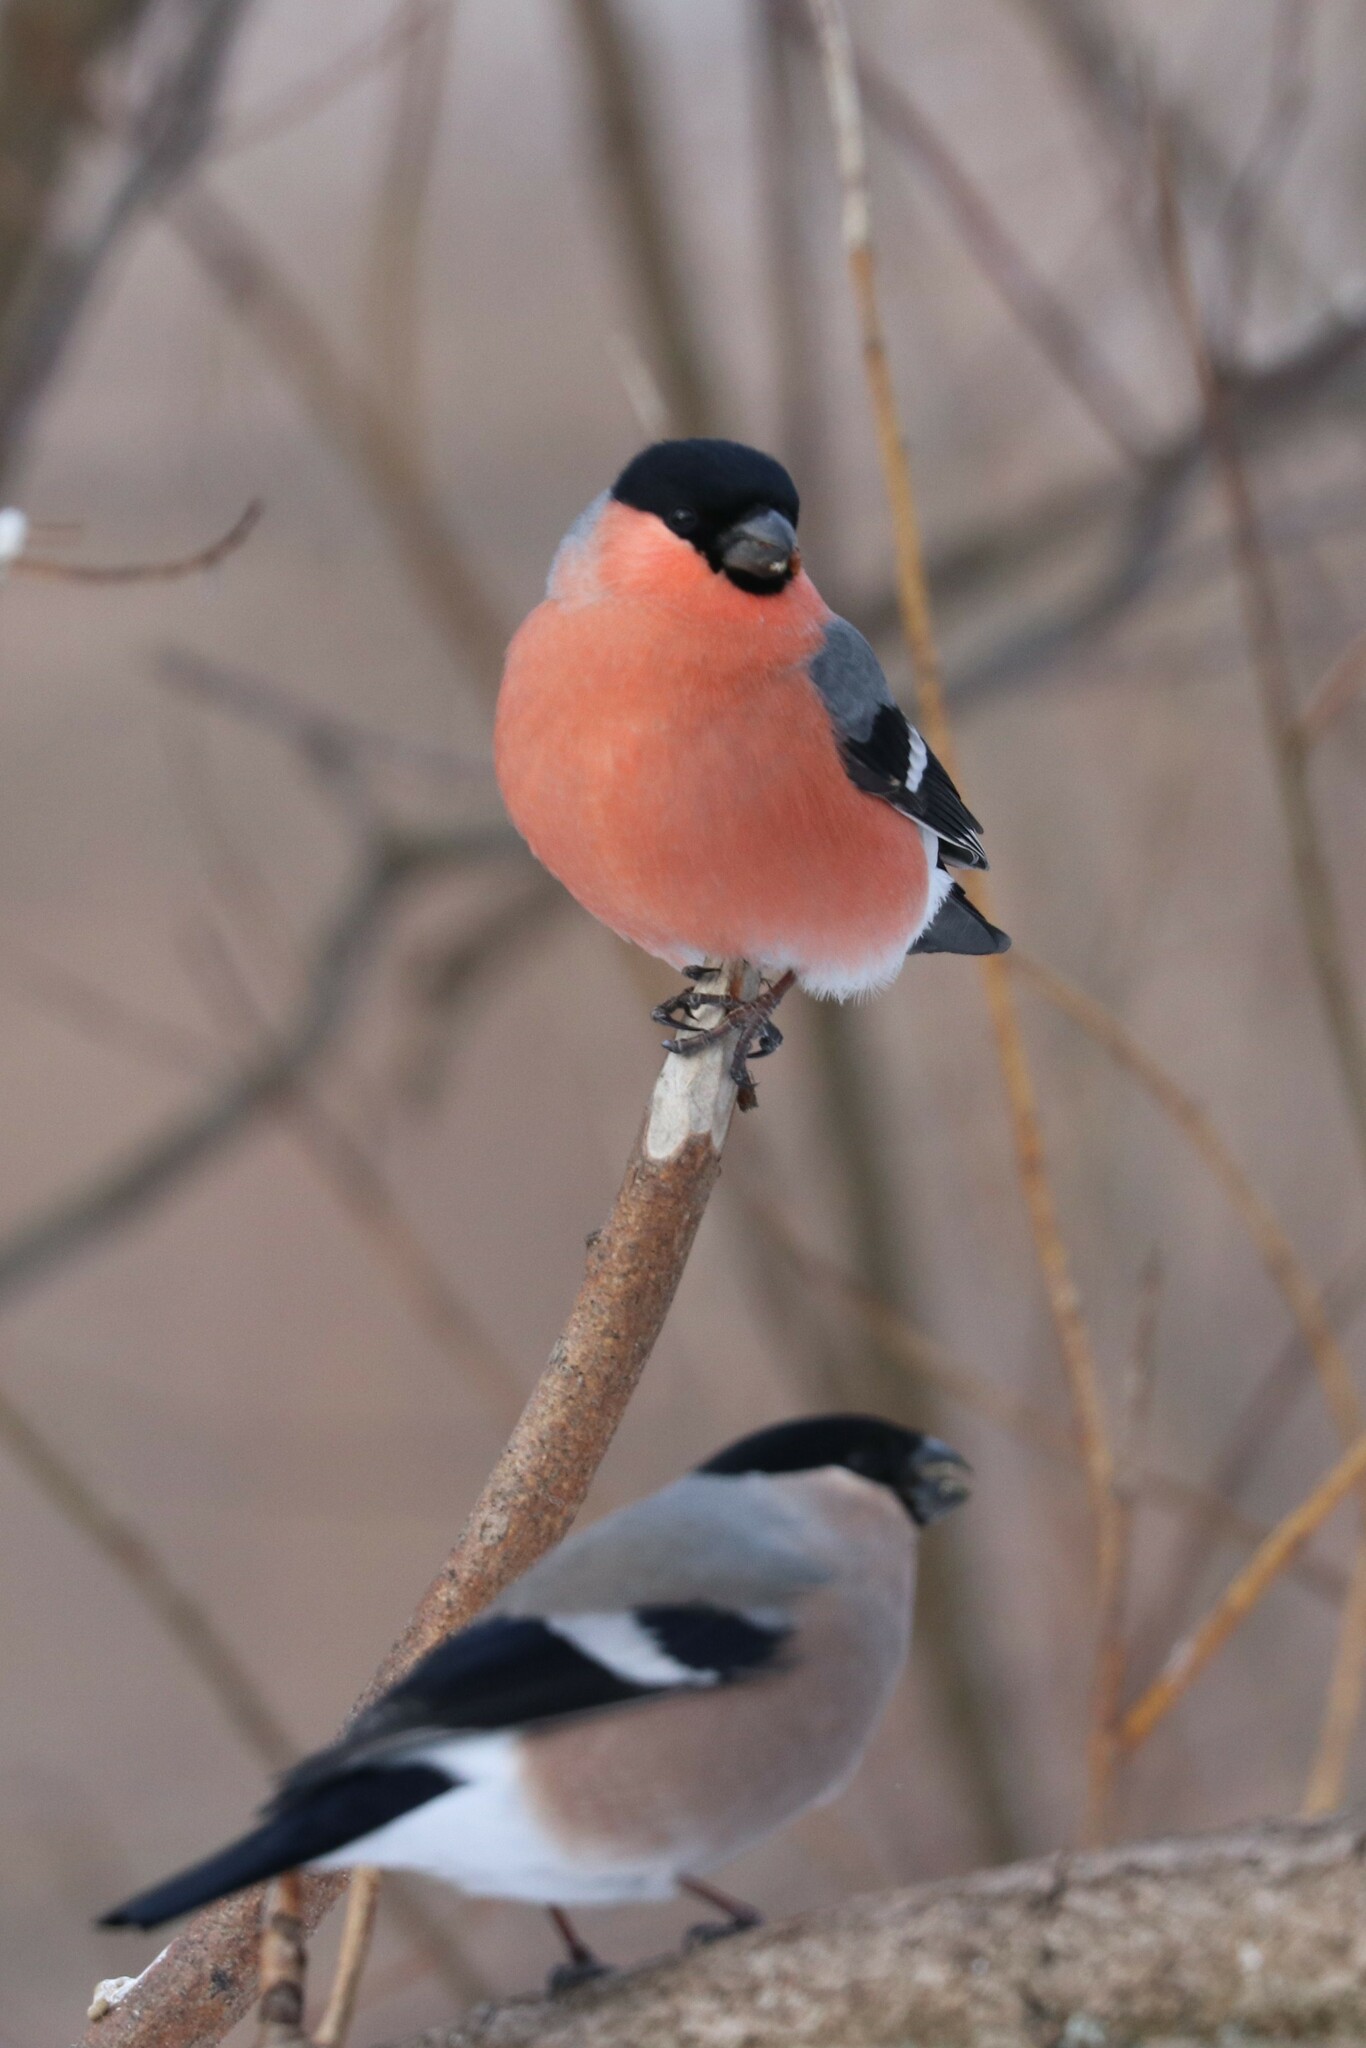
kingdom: Animalia
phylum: Chordata
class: Aves
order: Passeriformes
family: Fringillidae
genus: Pyrrhula
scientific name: Pyrrhula pyrrhula
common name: Eurasian bullfinch
